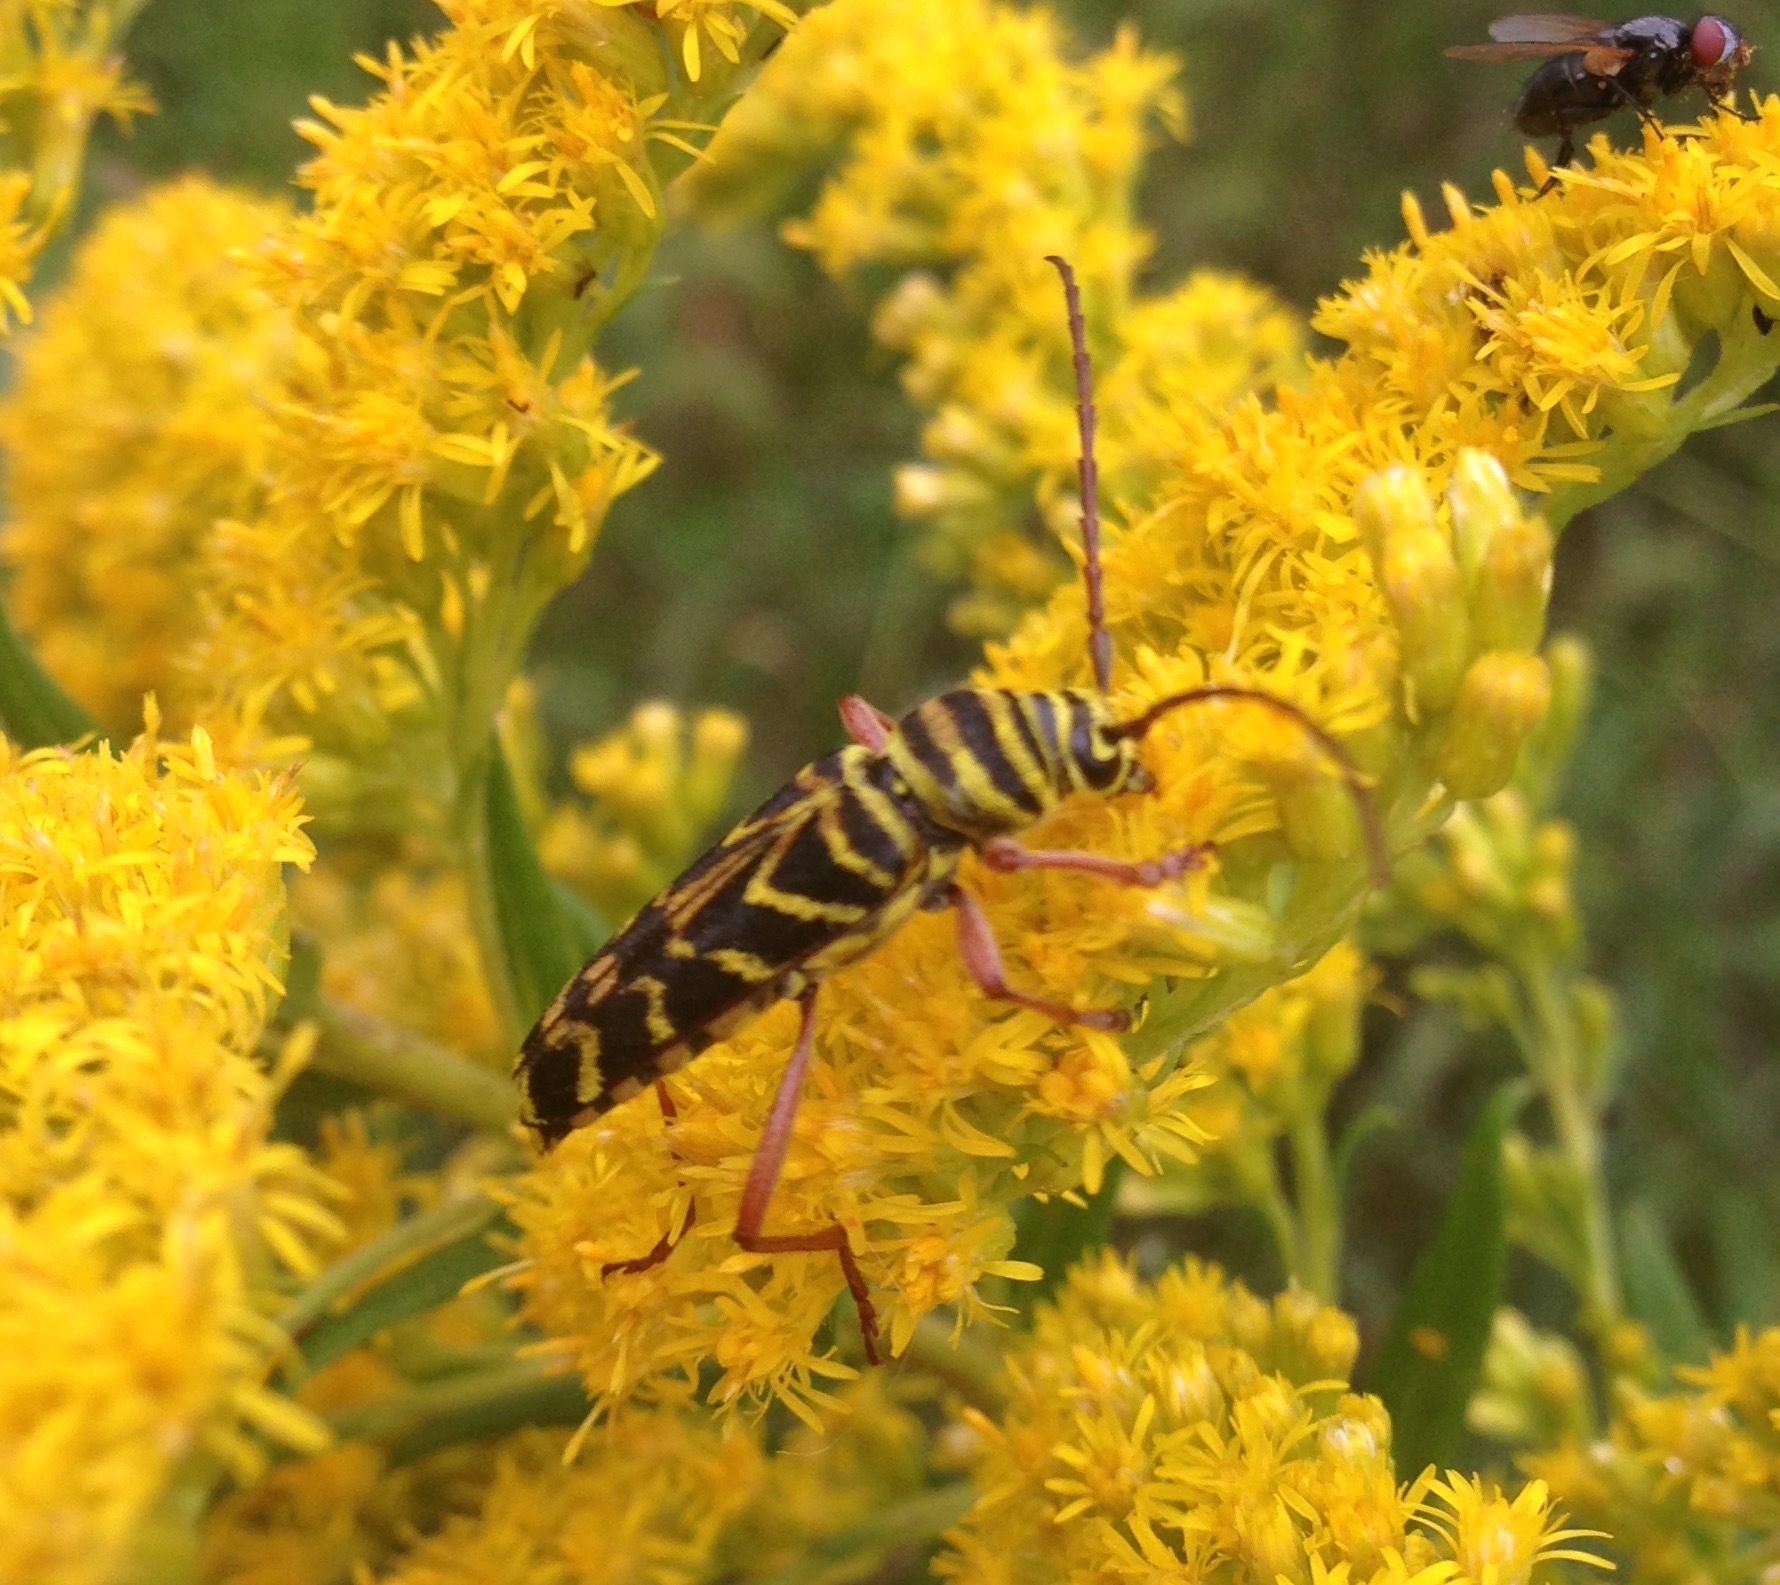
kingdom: Animalia
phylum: Arthropoda
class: Insecta
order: Coleoptera
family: Cerambycidae
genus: Megacyllene
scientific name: Megacyllene robiniae
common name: Locust borer
